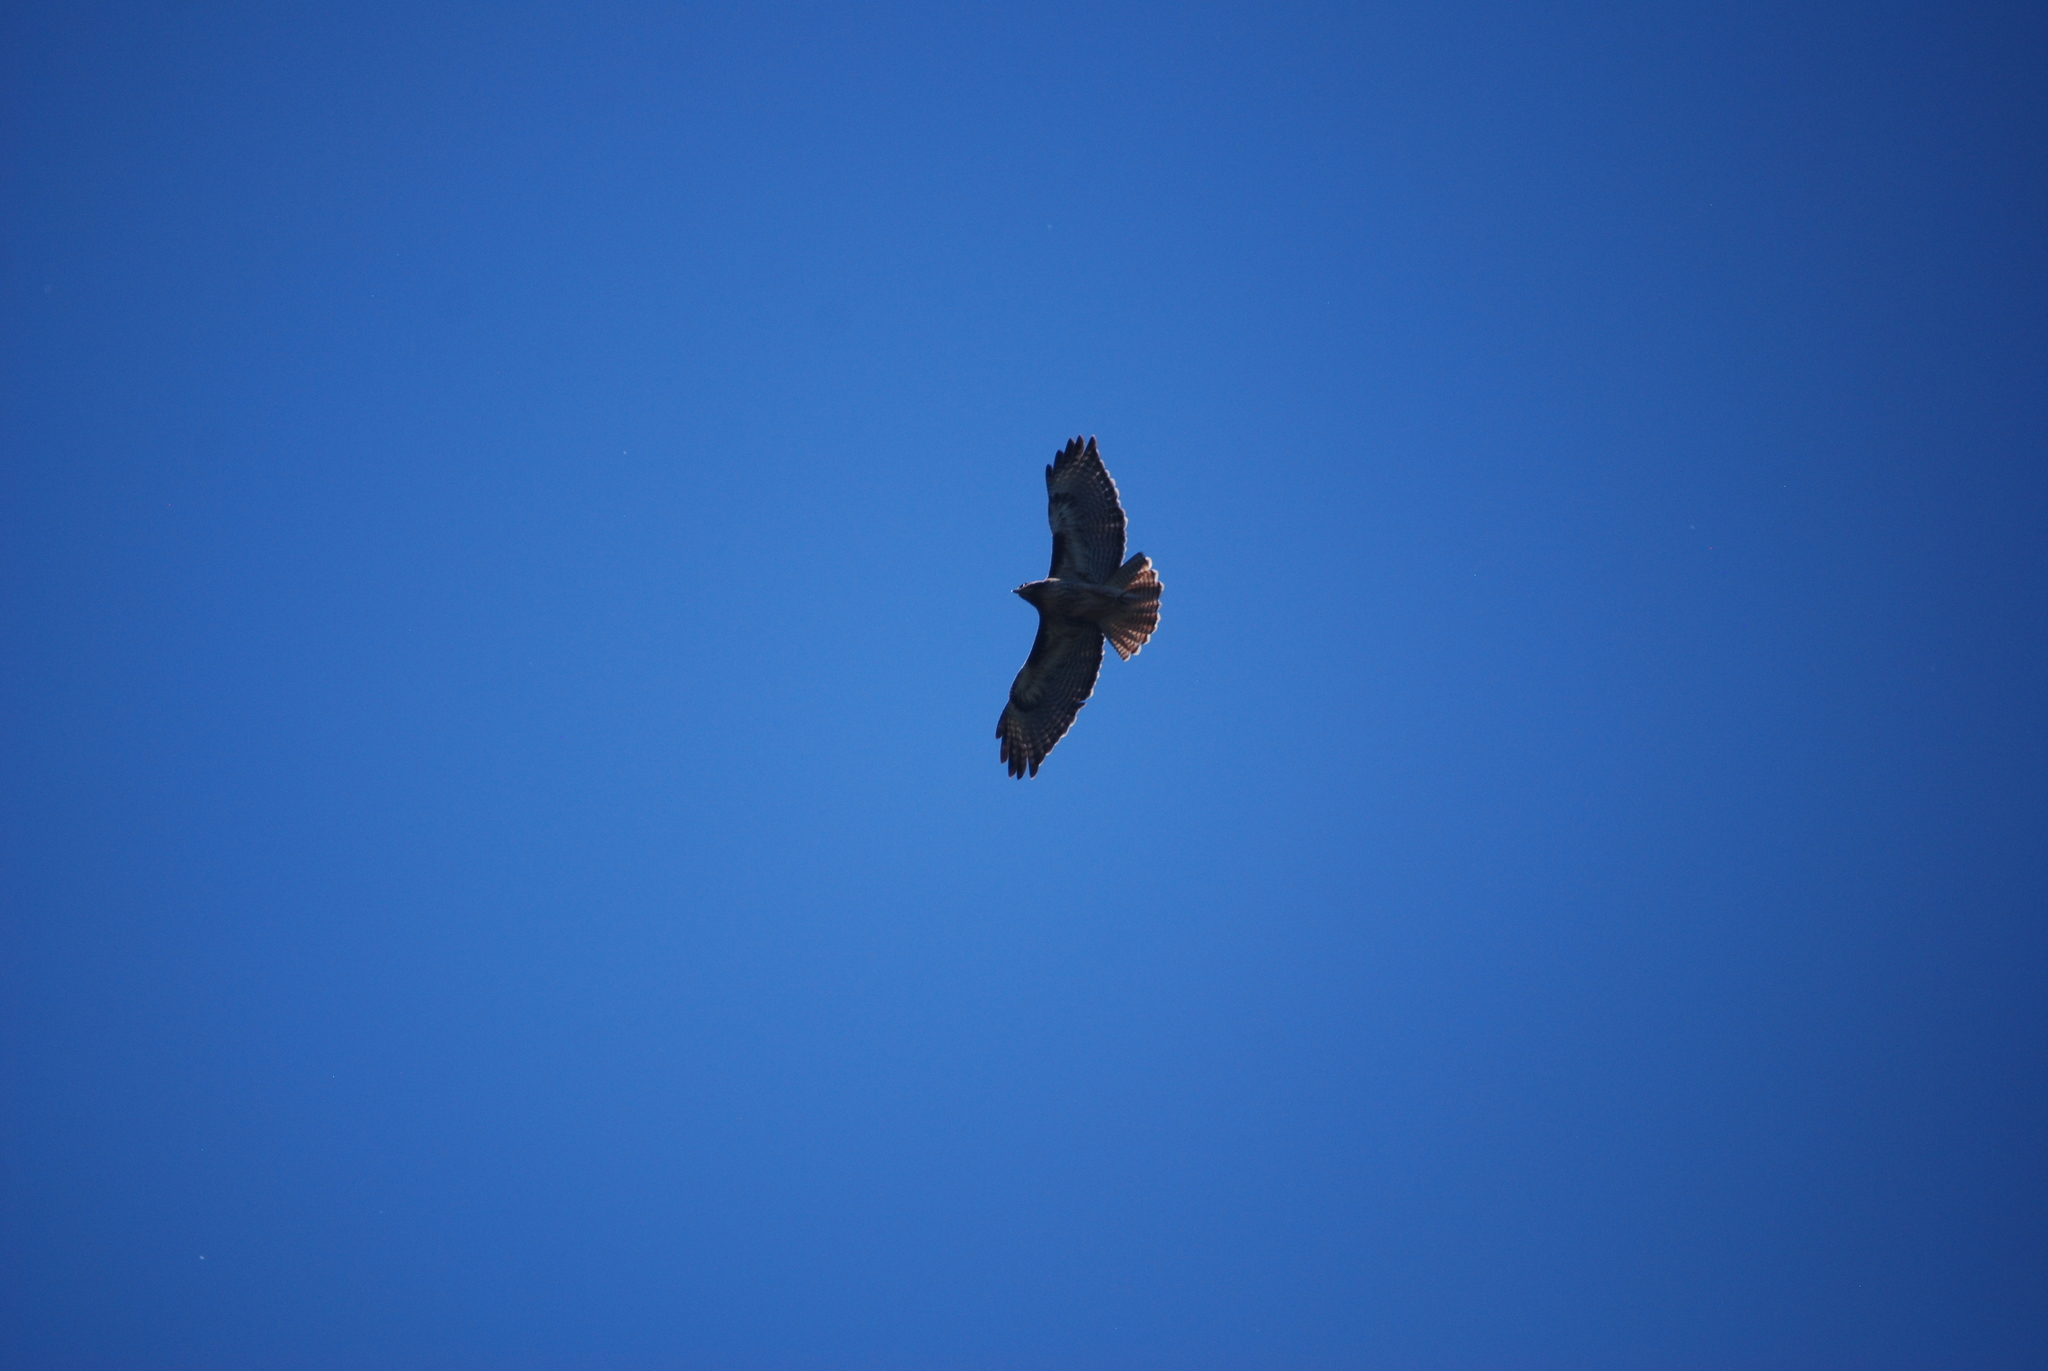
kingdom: Animalia
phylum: Chordata
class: Aves
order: Accipitriformes
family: Accipitridae
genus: Buteo
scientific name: Buteo jamaicensis
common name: Red-tailed hawk
